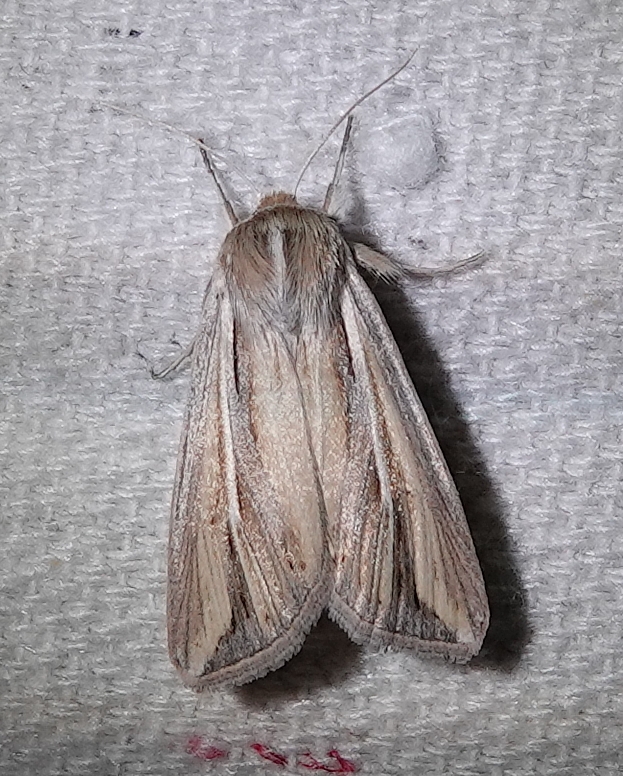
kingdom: Animalia
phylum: Arthropoda
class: Insecta
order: Lepidoptera
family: Noctuidae
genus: Dargida
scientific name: Dargida diffusa
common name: Wheat head armyworm
